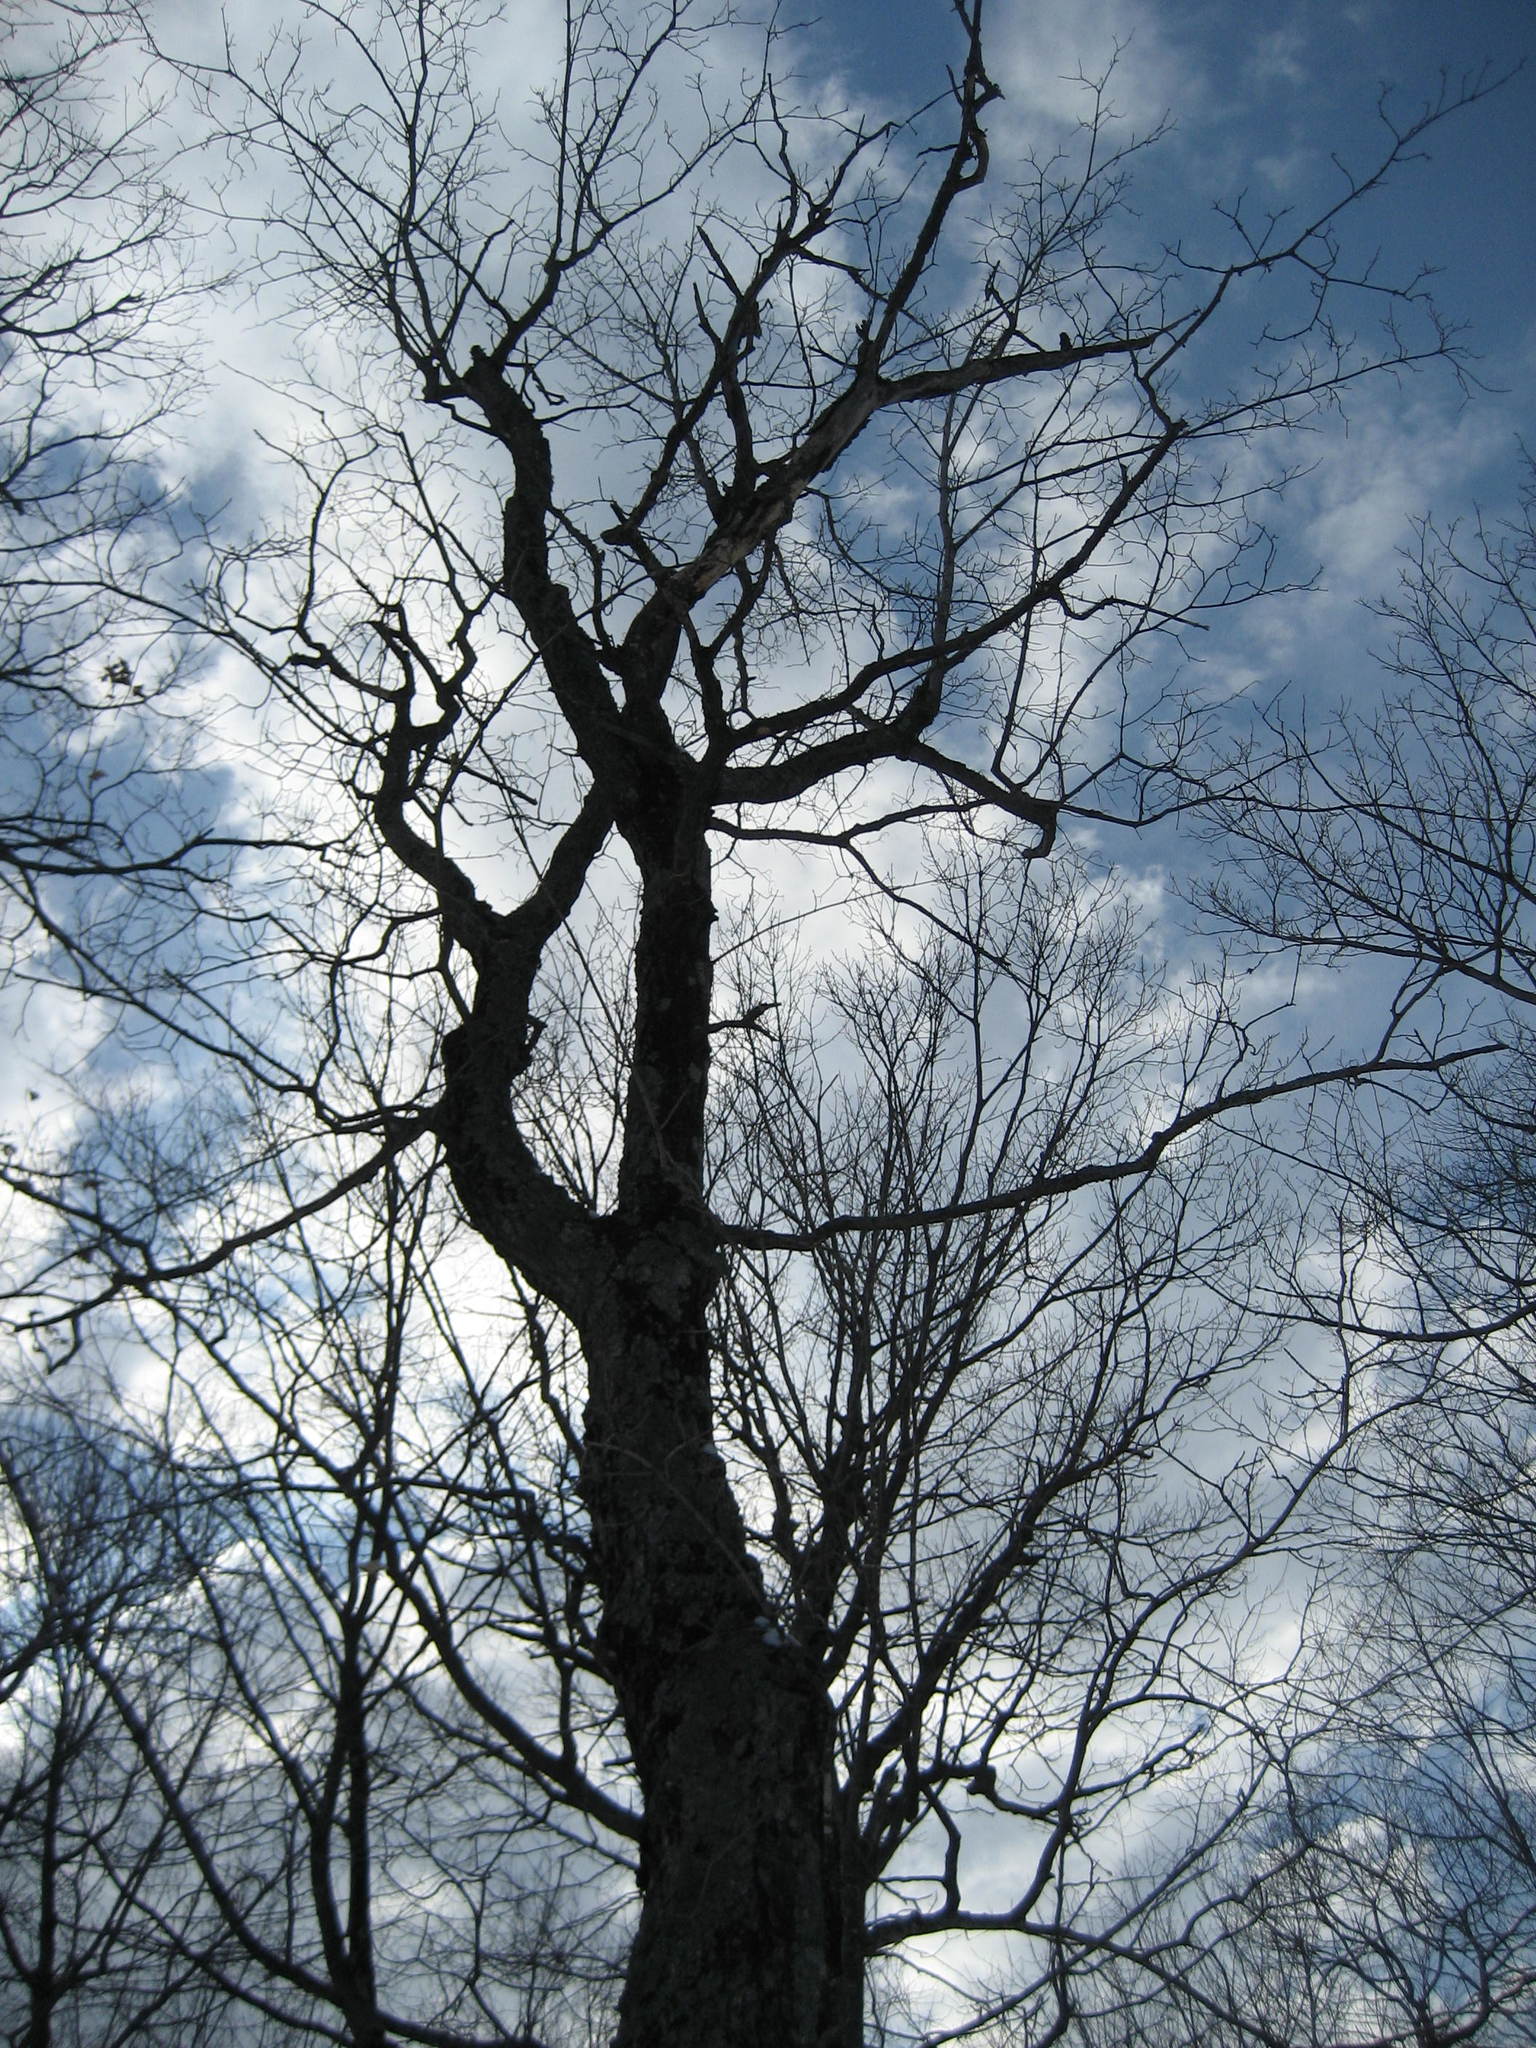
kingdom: Plantae
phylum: Tracheophyta
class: Magnoliopsida
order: Sapindales
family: Sapindaceae
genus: Acer
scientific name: Acer saccharum
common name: Sugar maple
